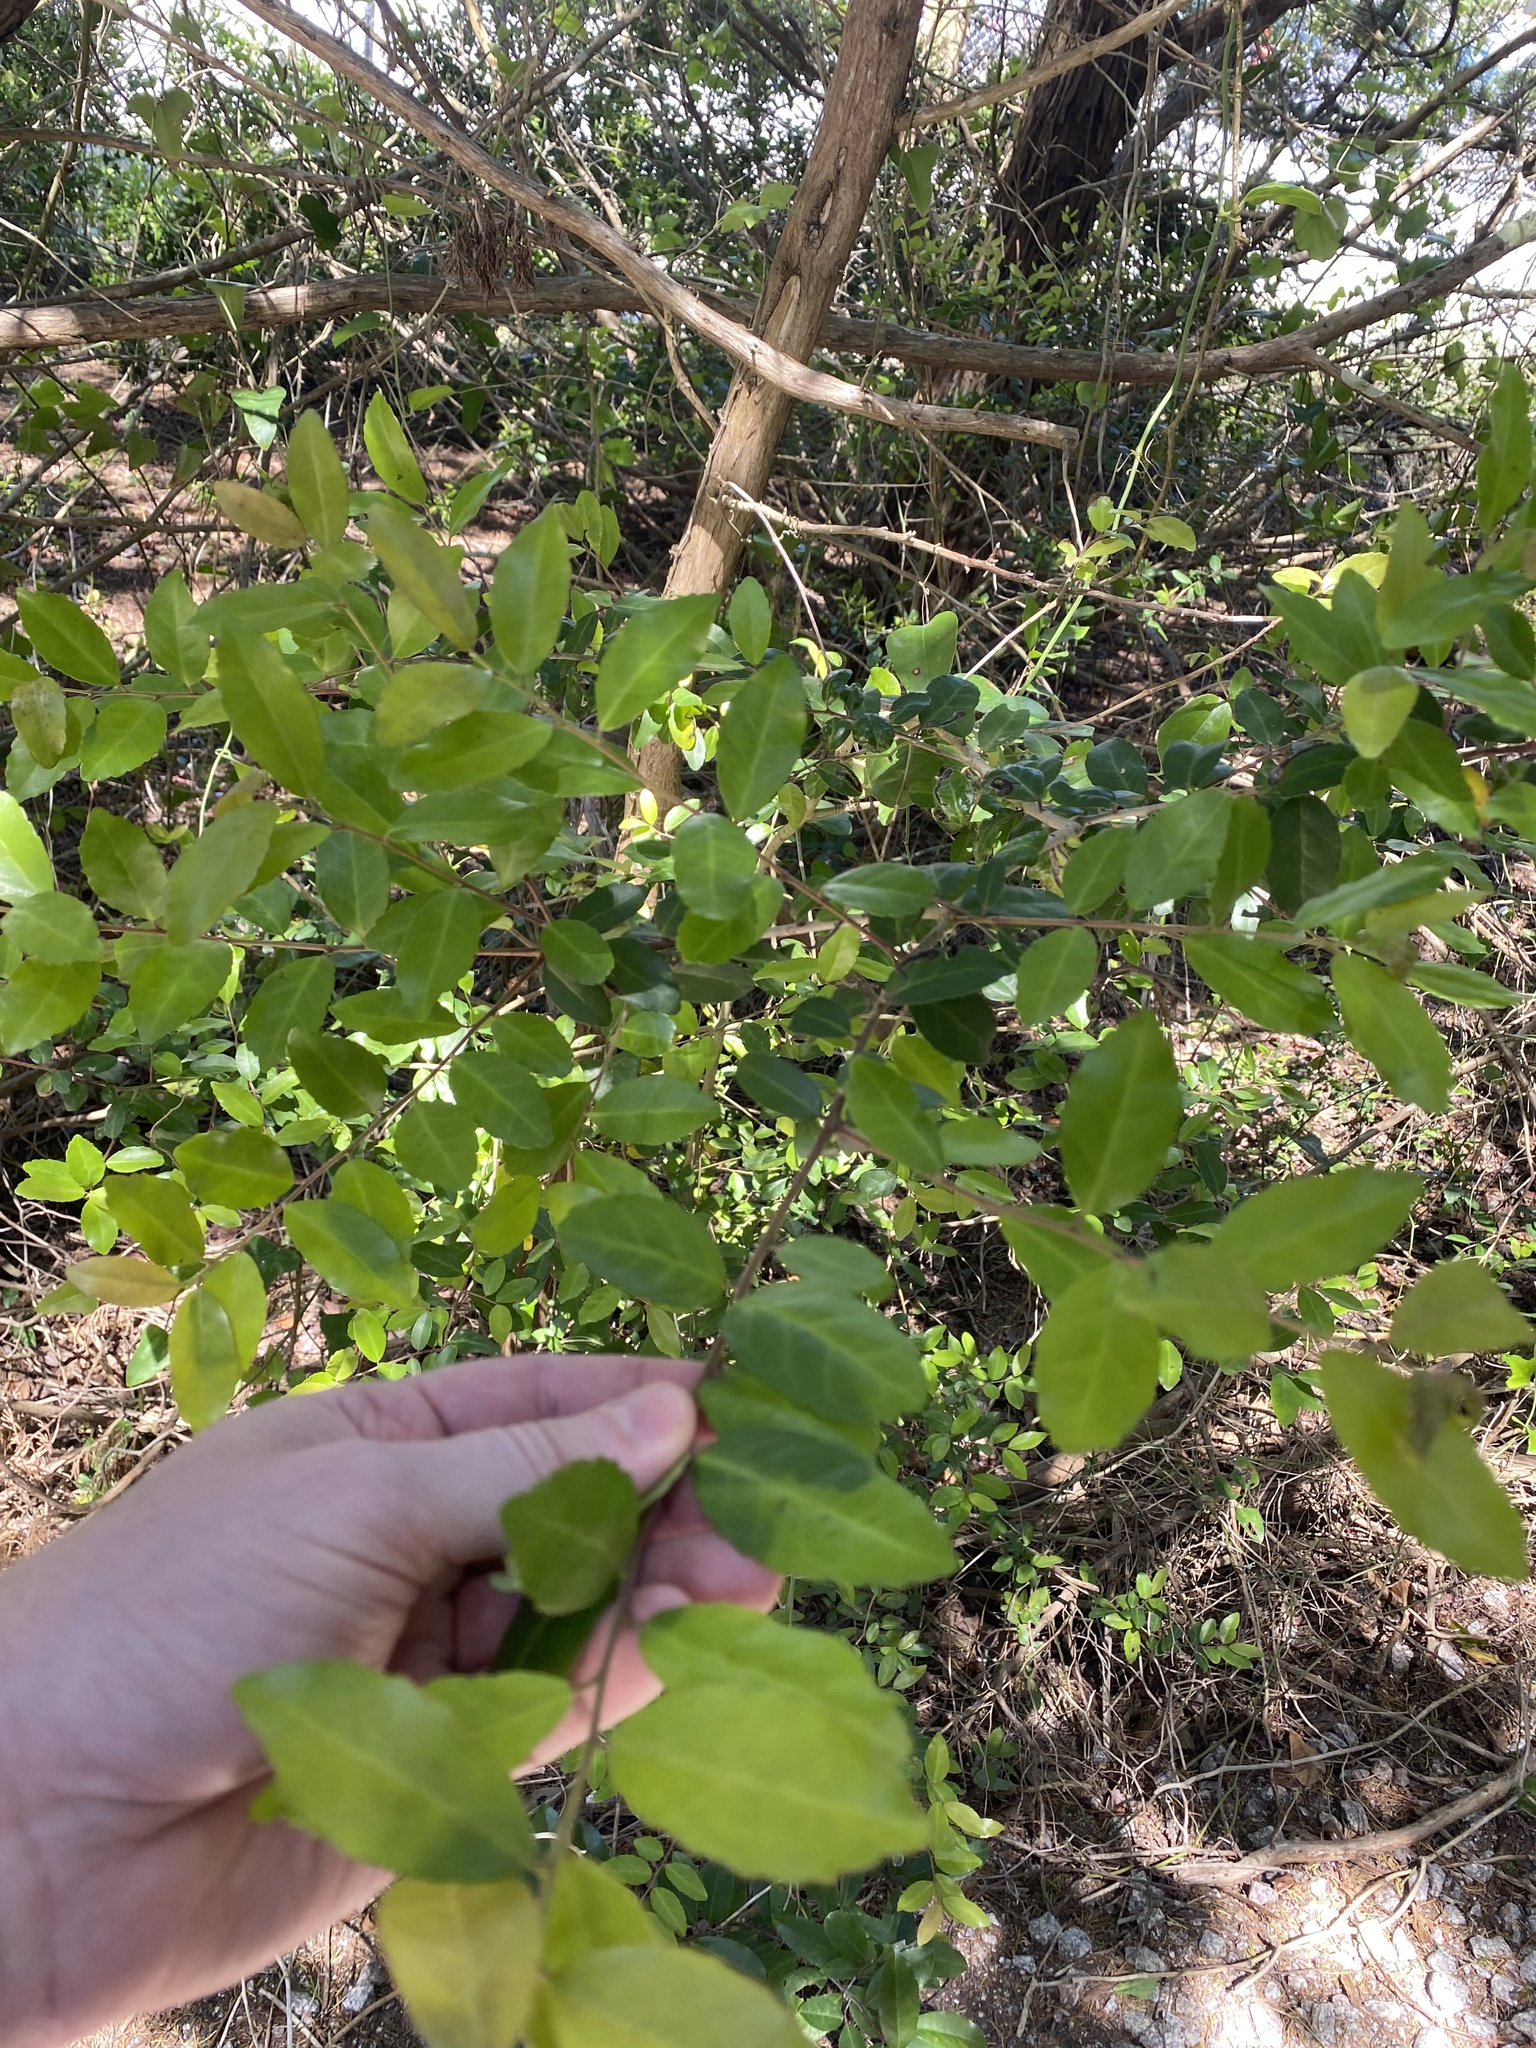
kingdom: Plantae
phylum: Tracheophyta
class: Magnoliopsida
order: Aquifoliales
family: Aquifoliaceae
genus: Ilex
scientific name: Ilex vomitoria
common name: Yaupon holly
